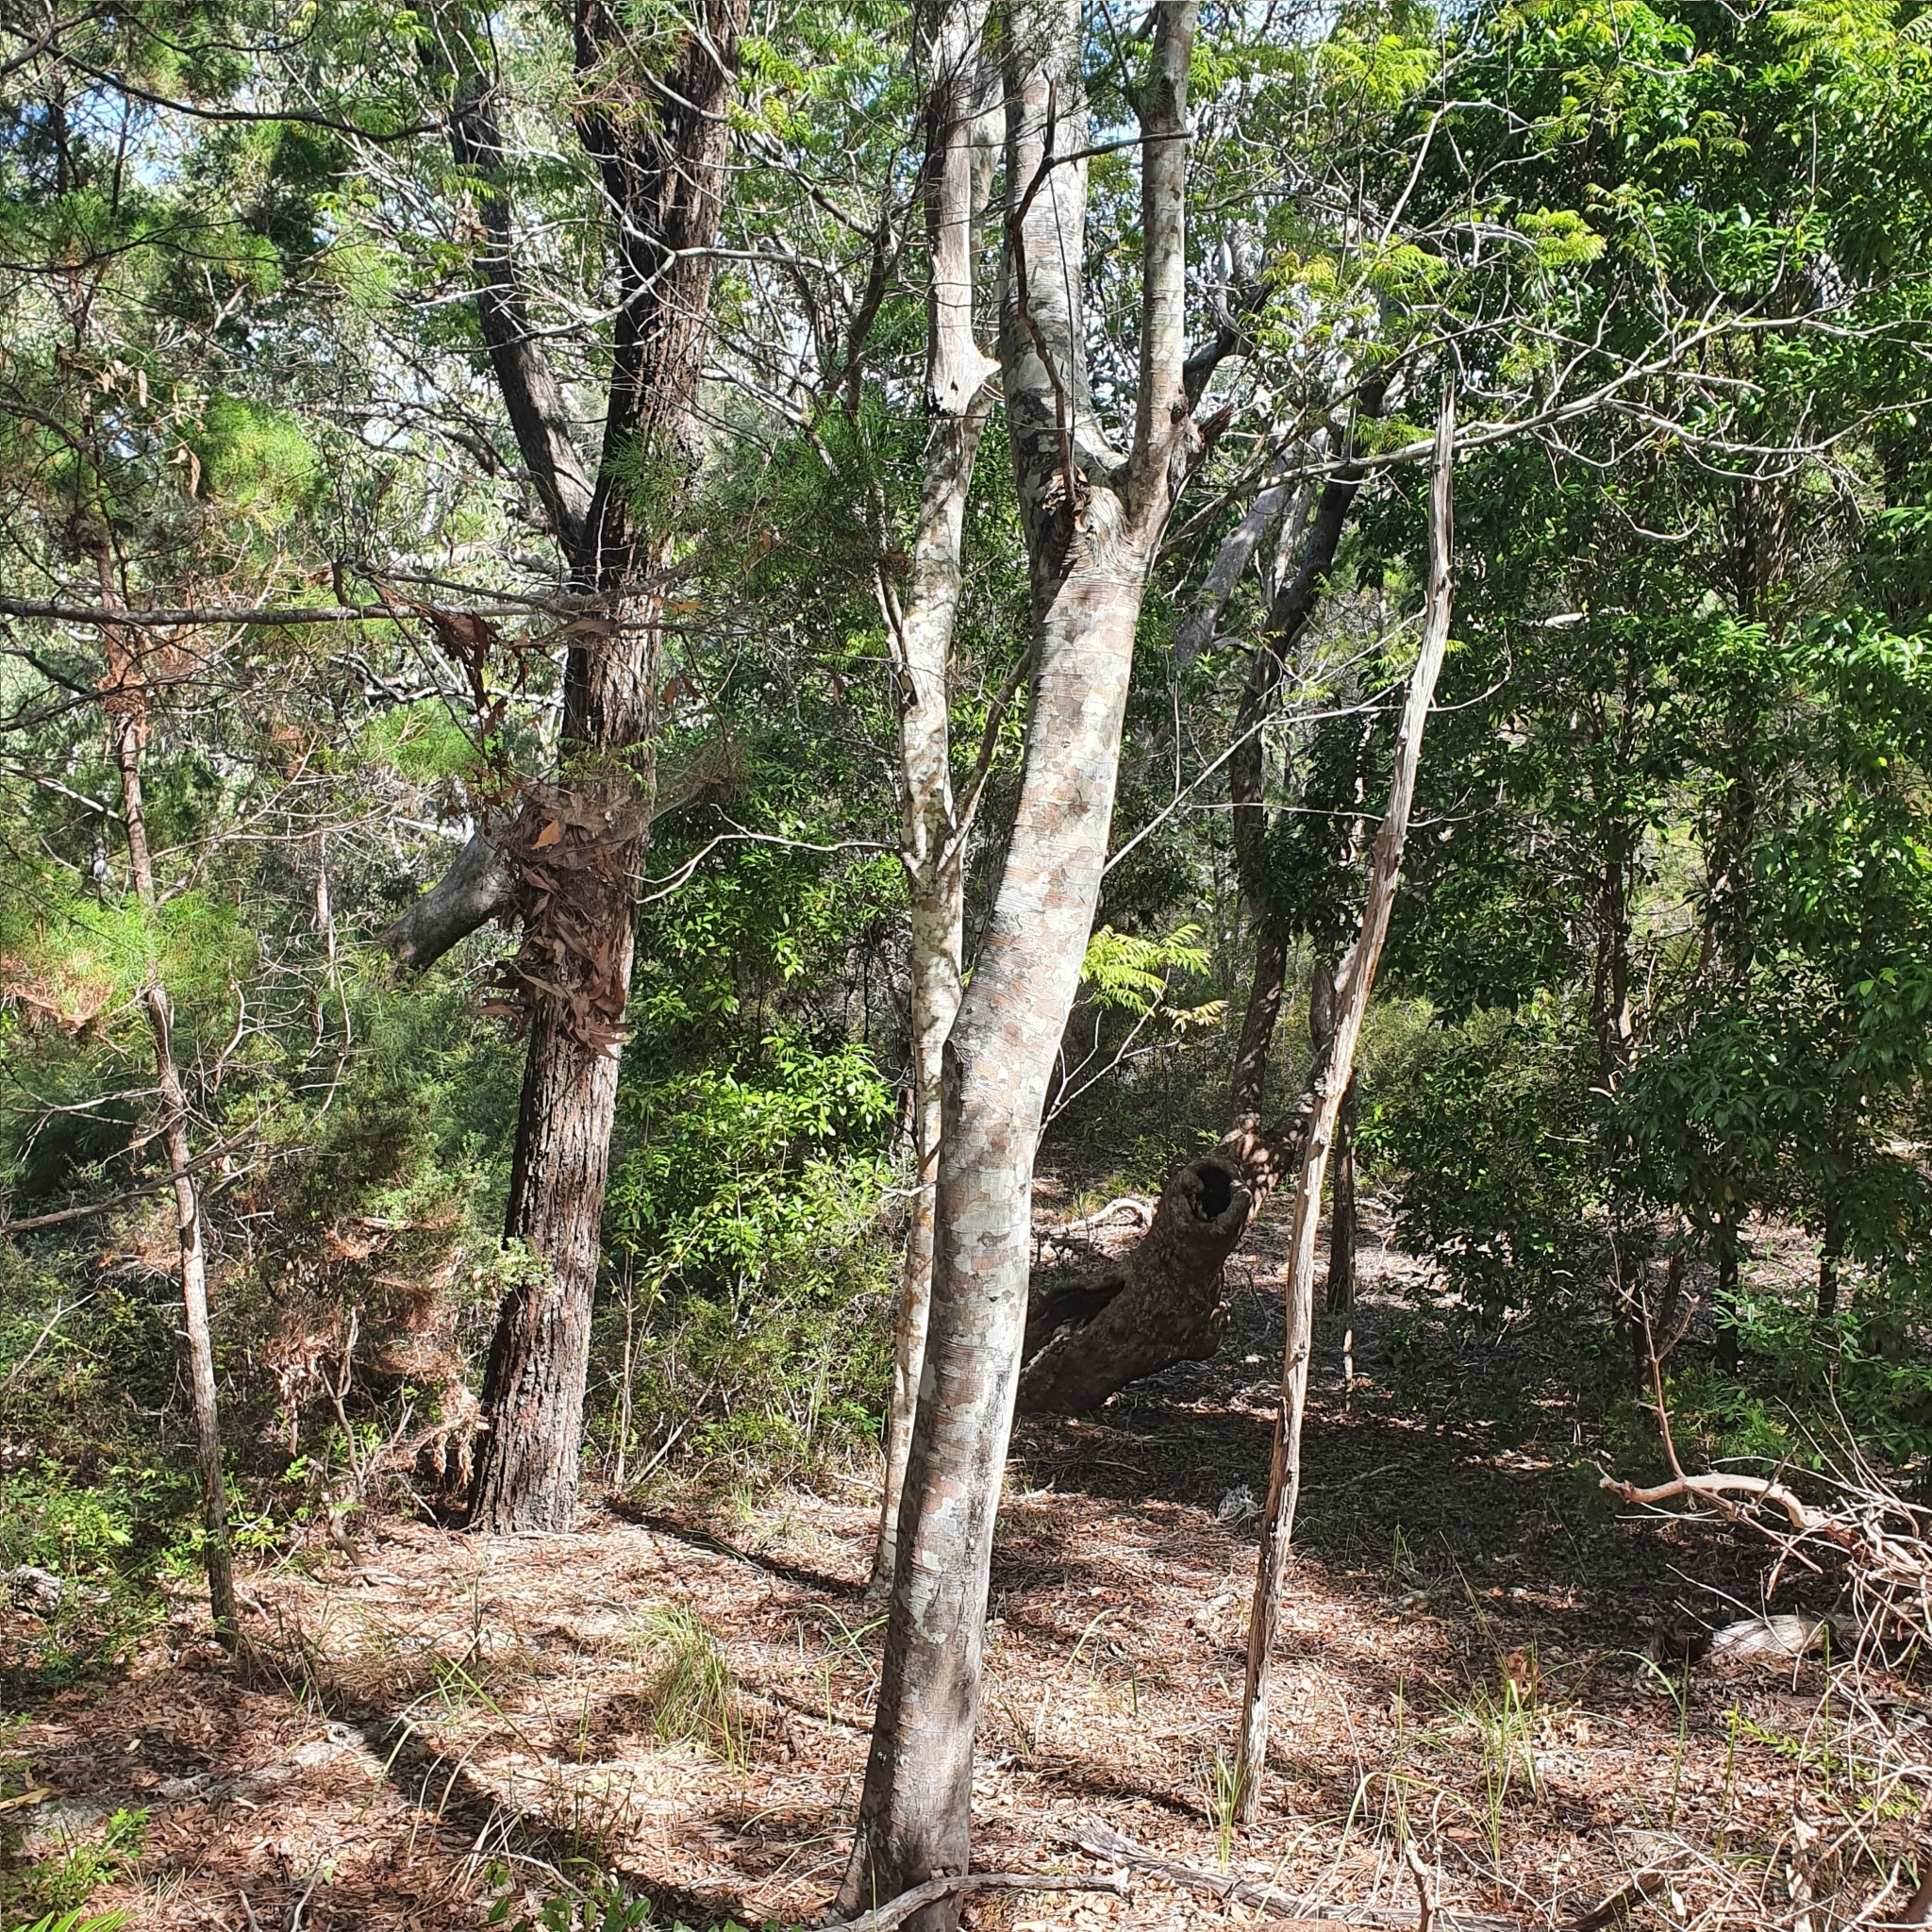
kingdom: Plantae
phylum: Tracheophyta
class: Magnoliopsida
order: Sapindales
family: Sapindaceae
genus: Jagera
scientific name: Jagera pseudorhus
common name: Fern-leaf-tamarind
